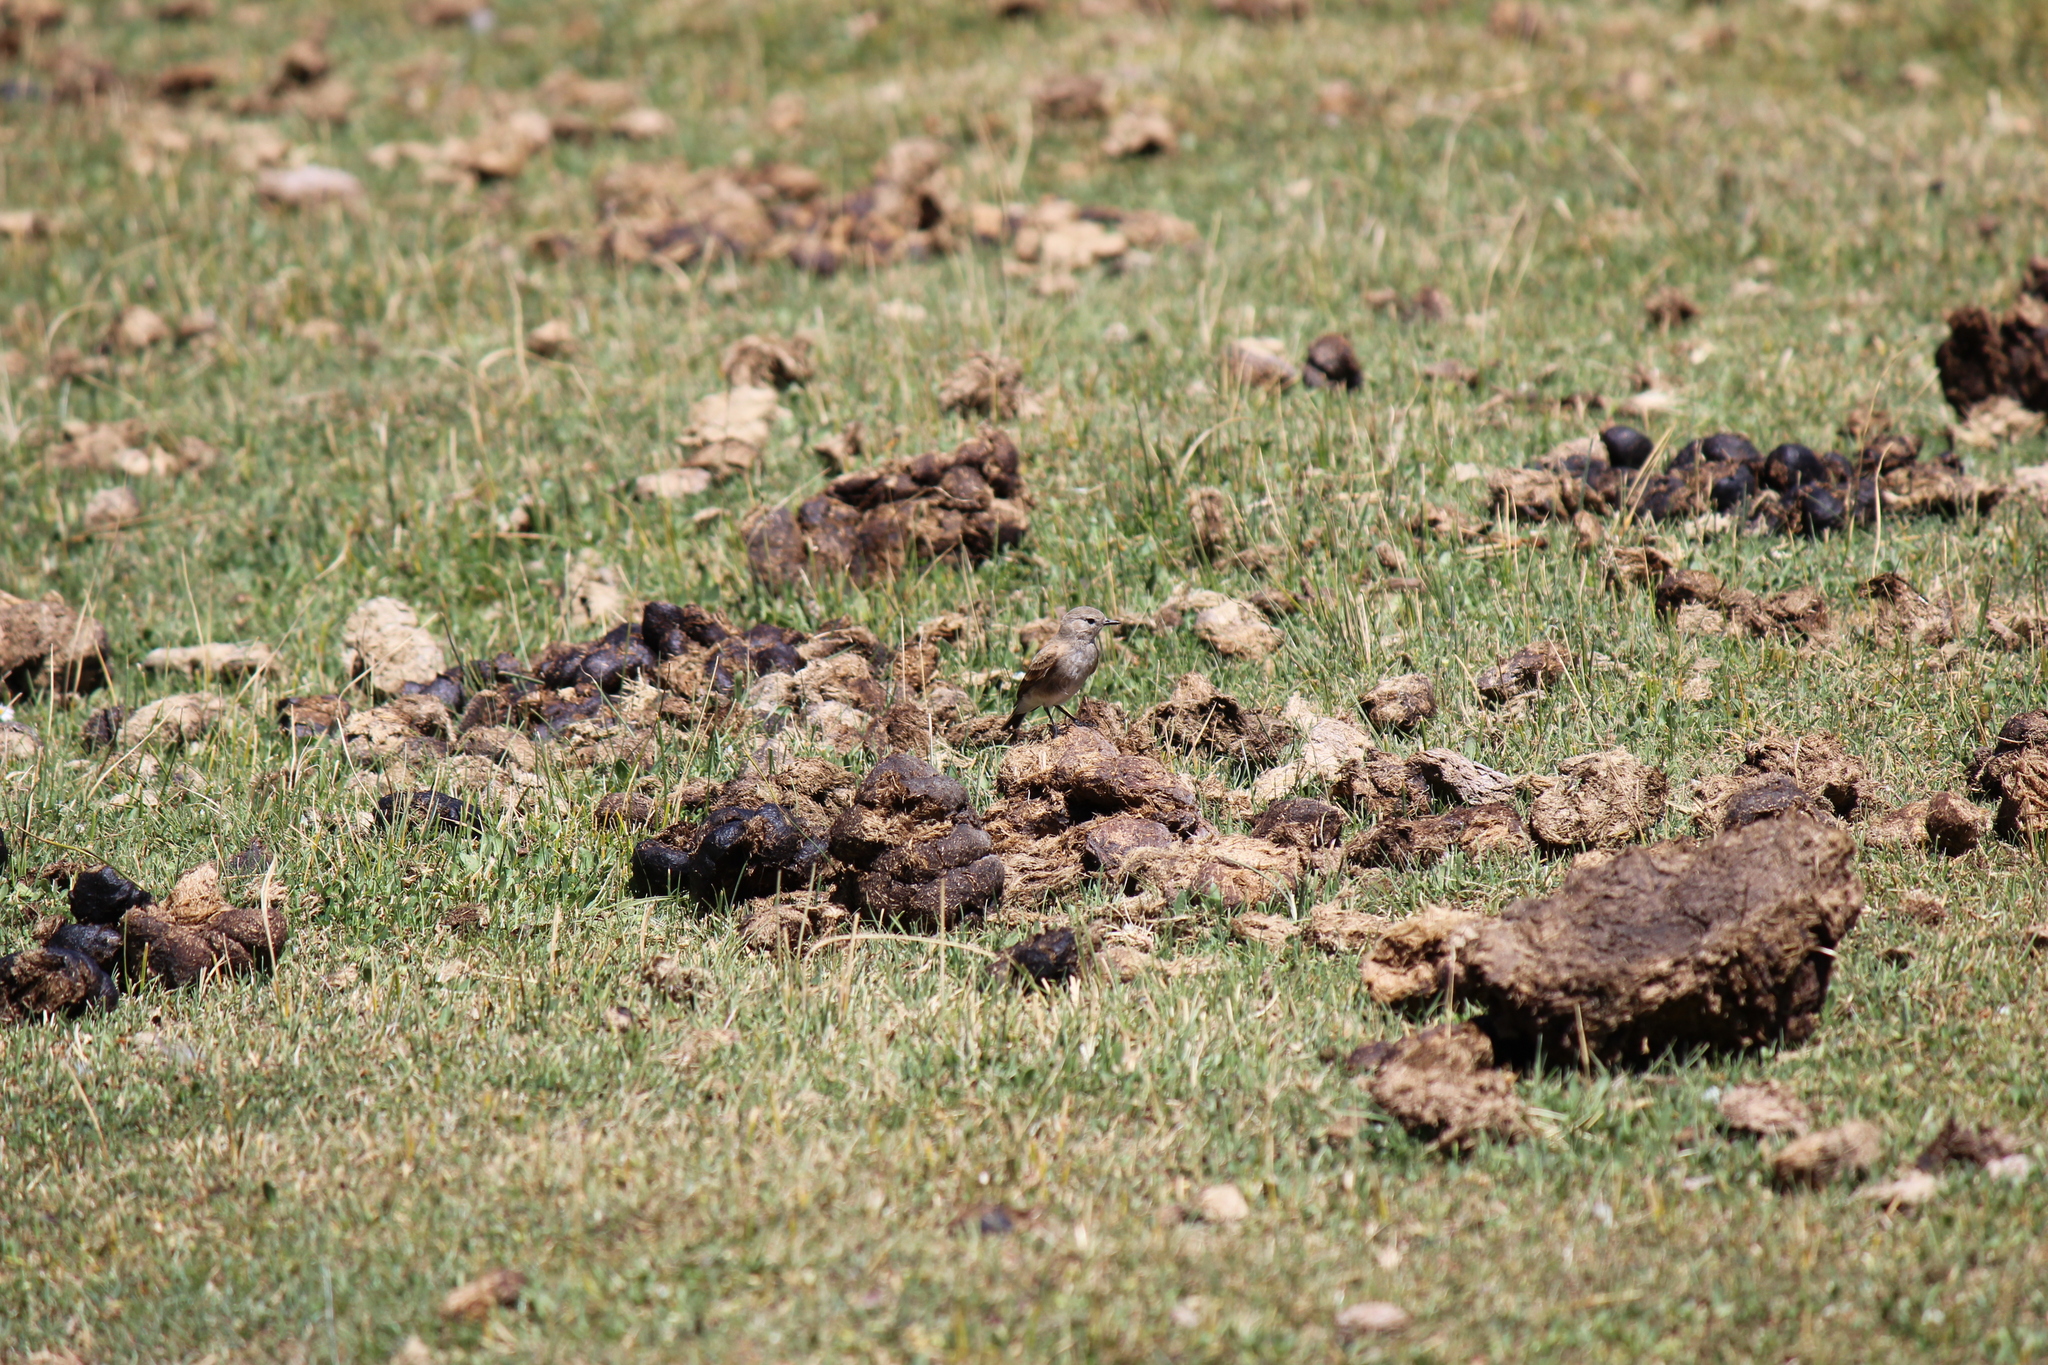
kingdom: Animalia
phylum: Chordata
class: Aves
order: Passeriformes
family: Tyrannidae
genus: Lessonia
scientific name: Lessonia rufa
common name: Austral negrito
